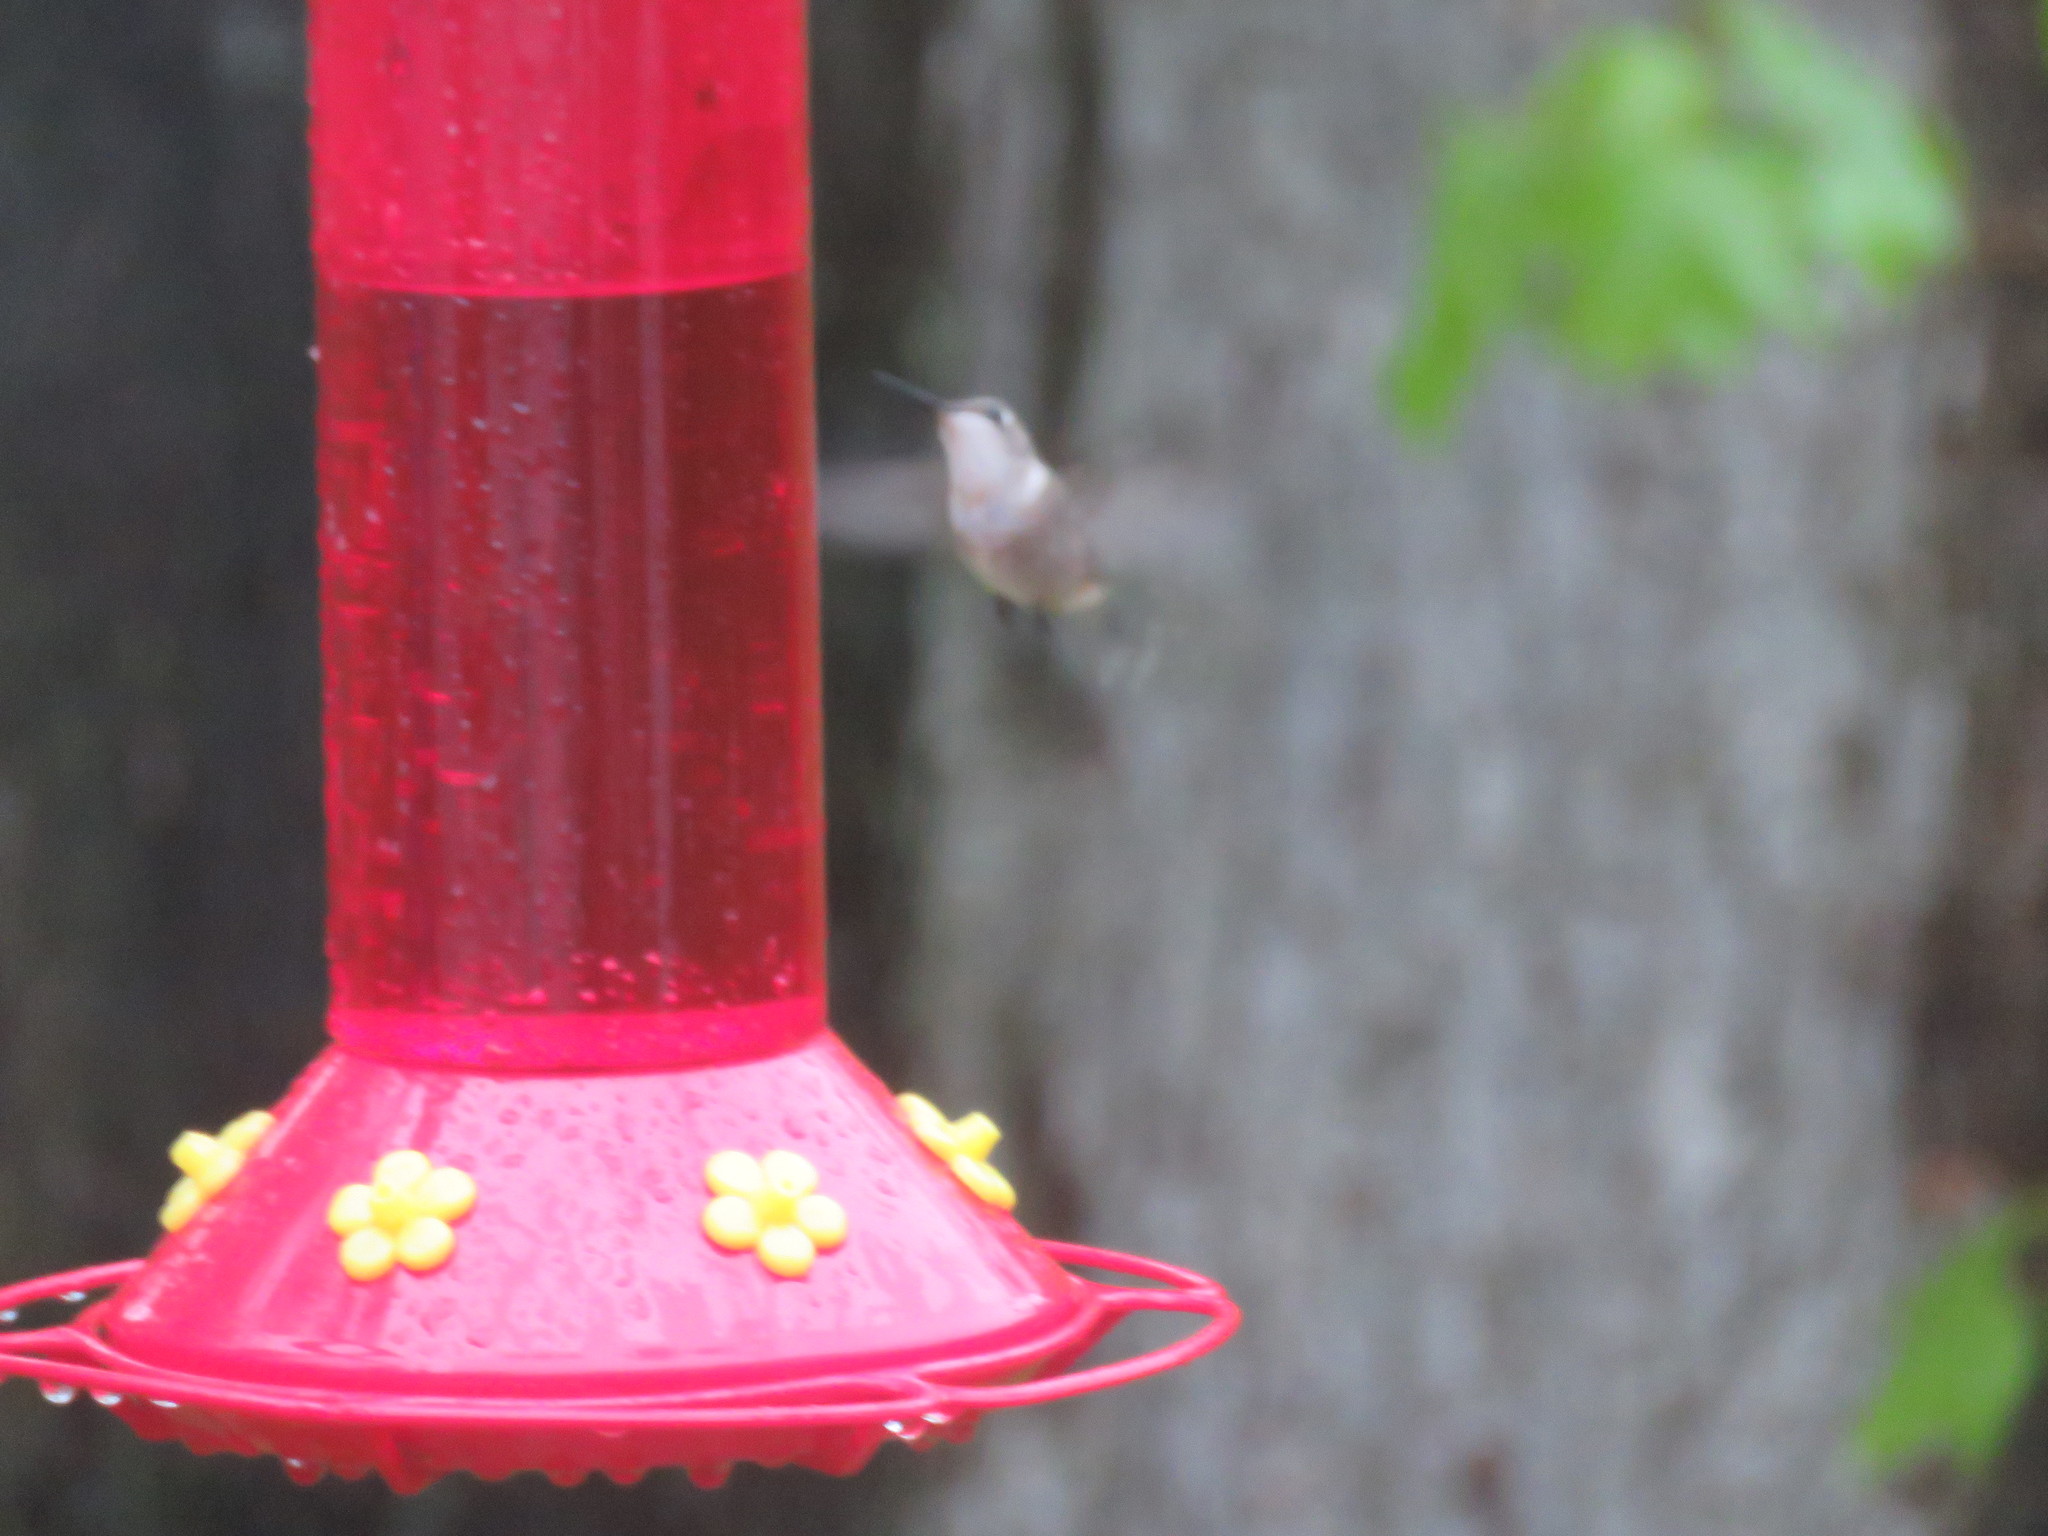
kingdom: Animalia
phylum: Chordata
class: Aves
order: Apodiformes
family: Trochilidae
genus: Archilochus
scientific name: Archilochus colubris
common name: Ruby-throated hummingbird
